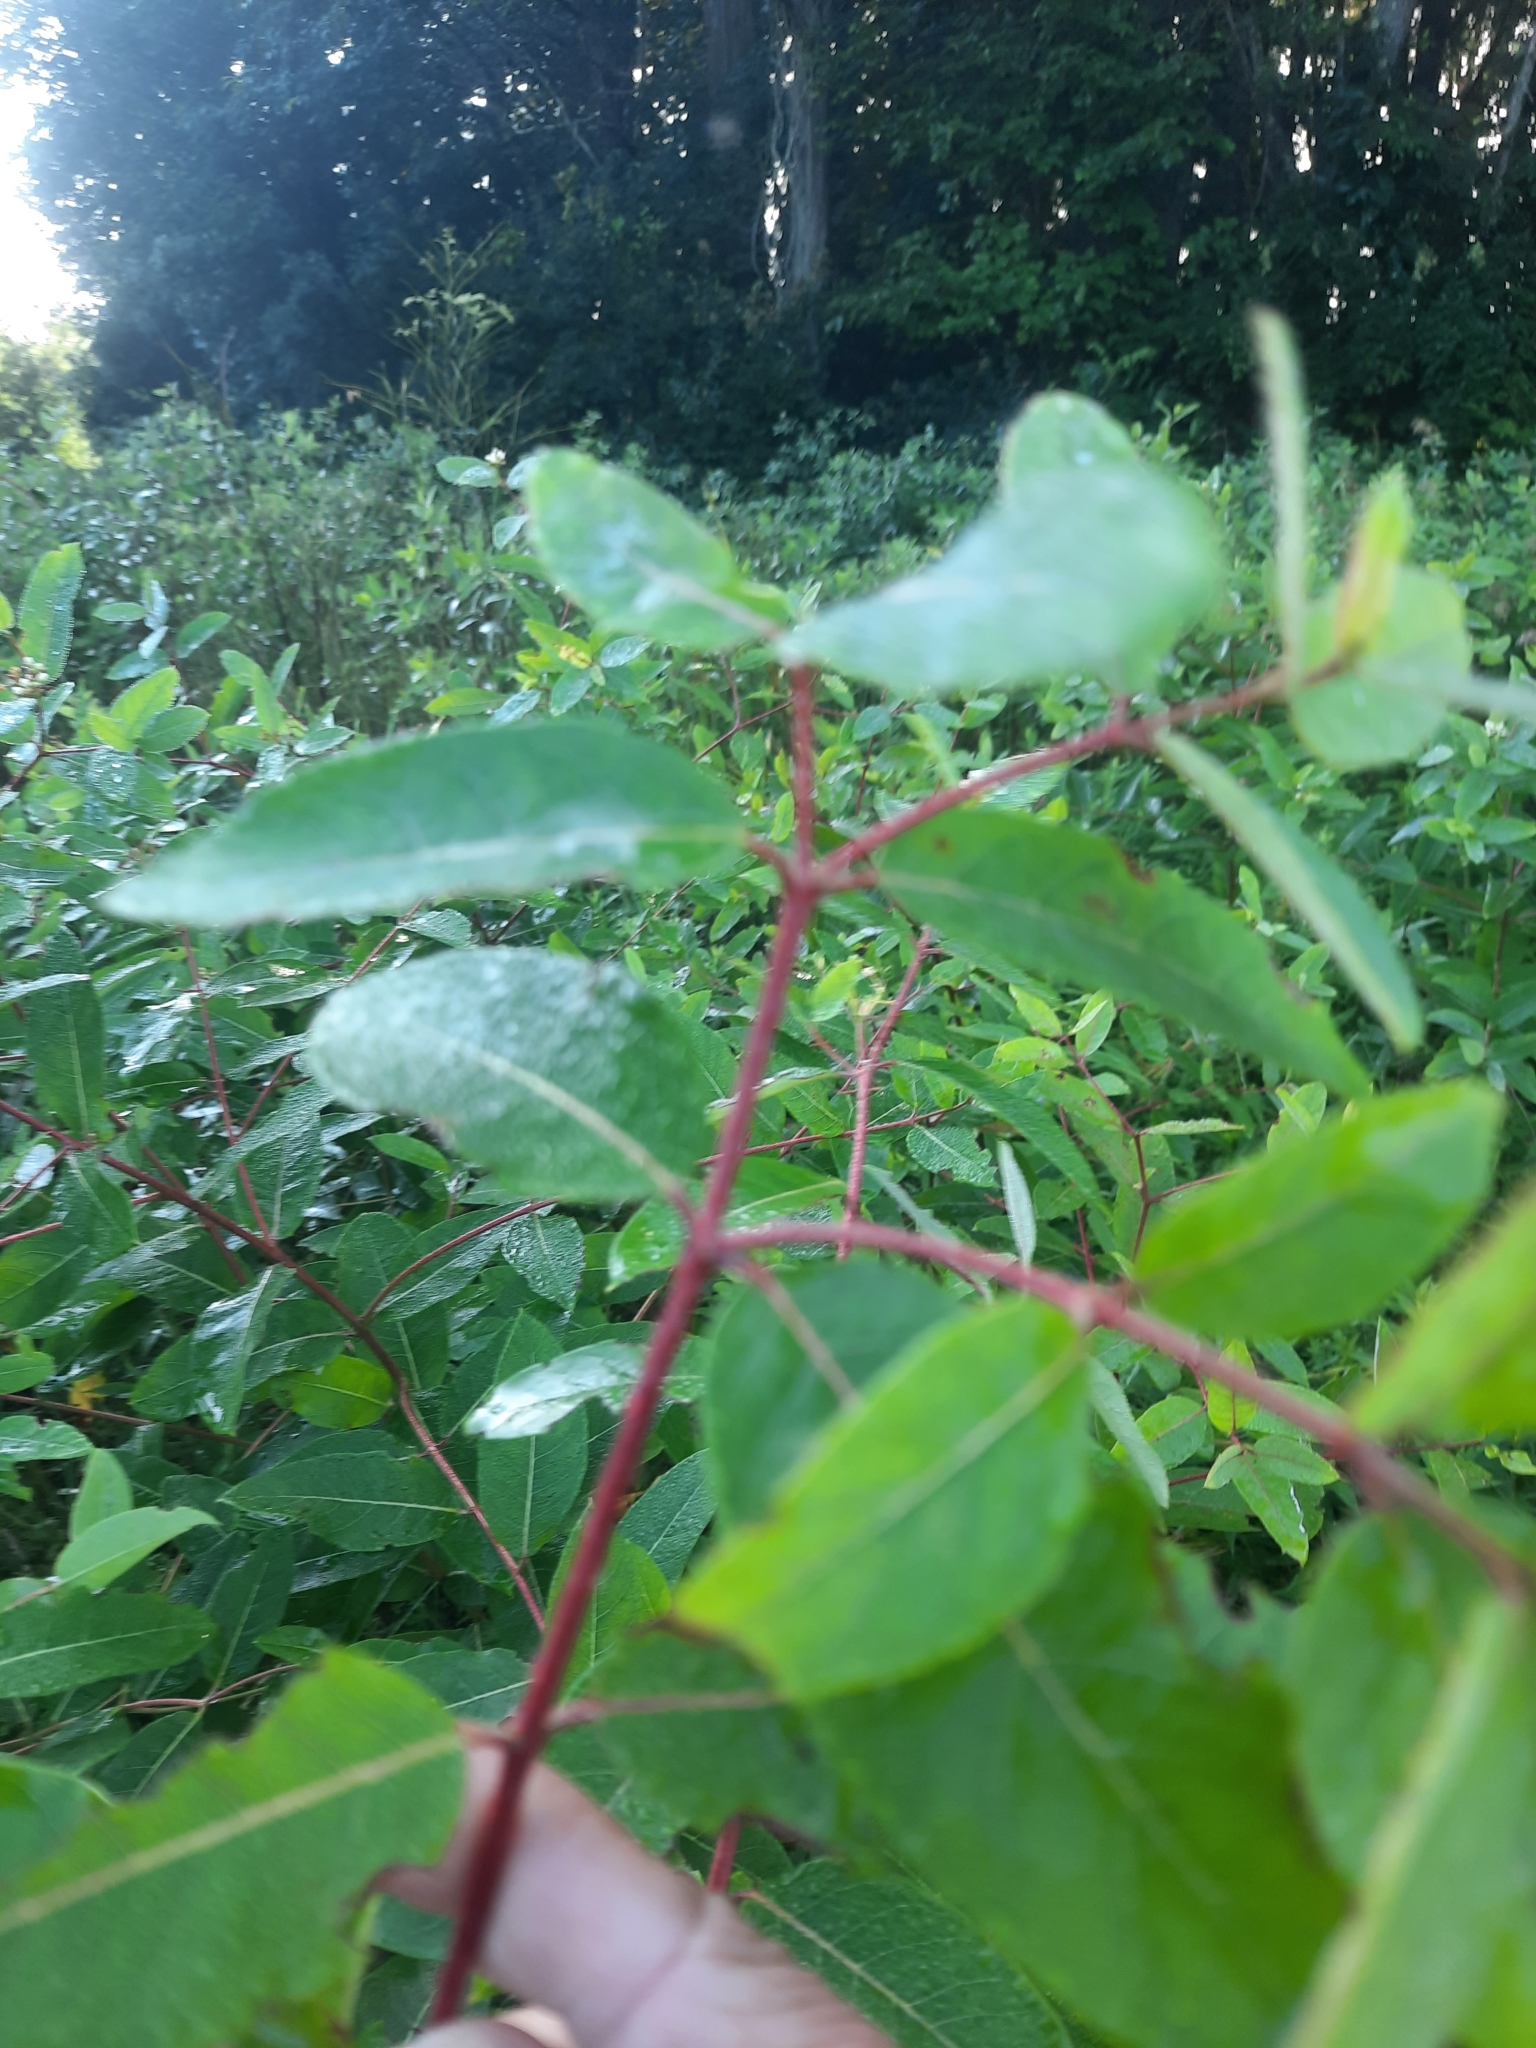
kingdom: Plantae
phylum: Tracheophyta
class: Magnoliopsida
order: Gentianales
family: Apocynaceae
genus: Apocynum
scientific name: Apocynum cannabinum
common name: Hemp dogbane
